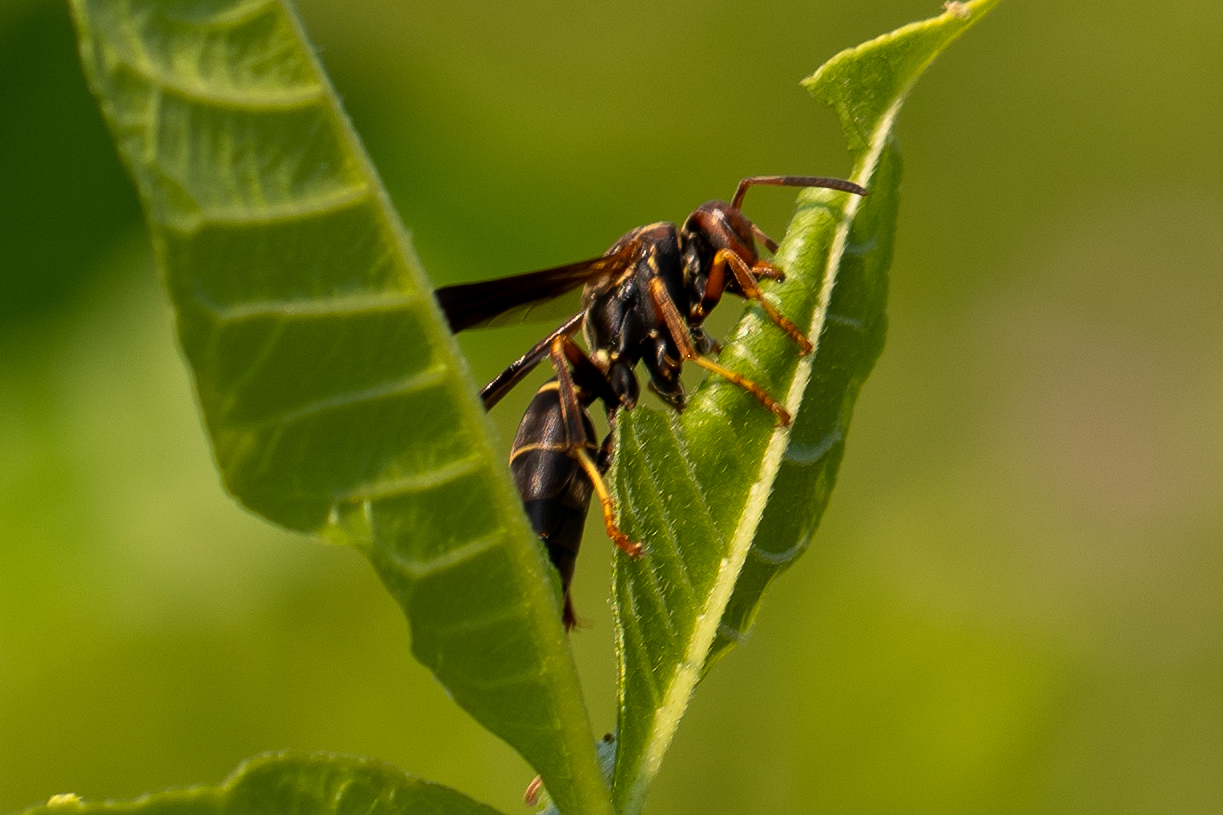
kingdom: Animalia
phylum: Arthropoda
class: Insecta
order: Hymenoptera
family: Eumenidae
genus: Polistes
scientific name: Polistes fuscatus
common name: Dark paper wasp
